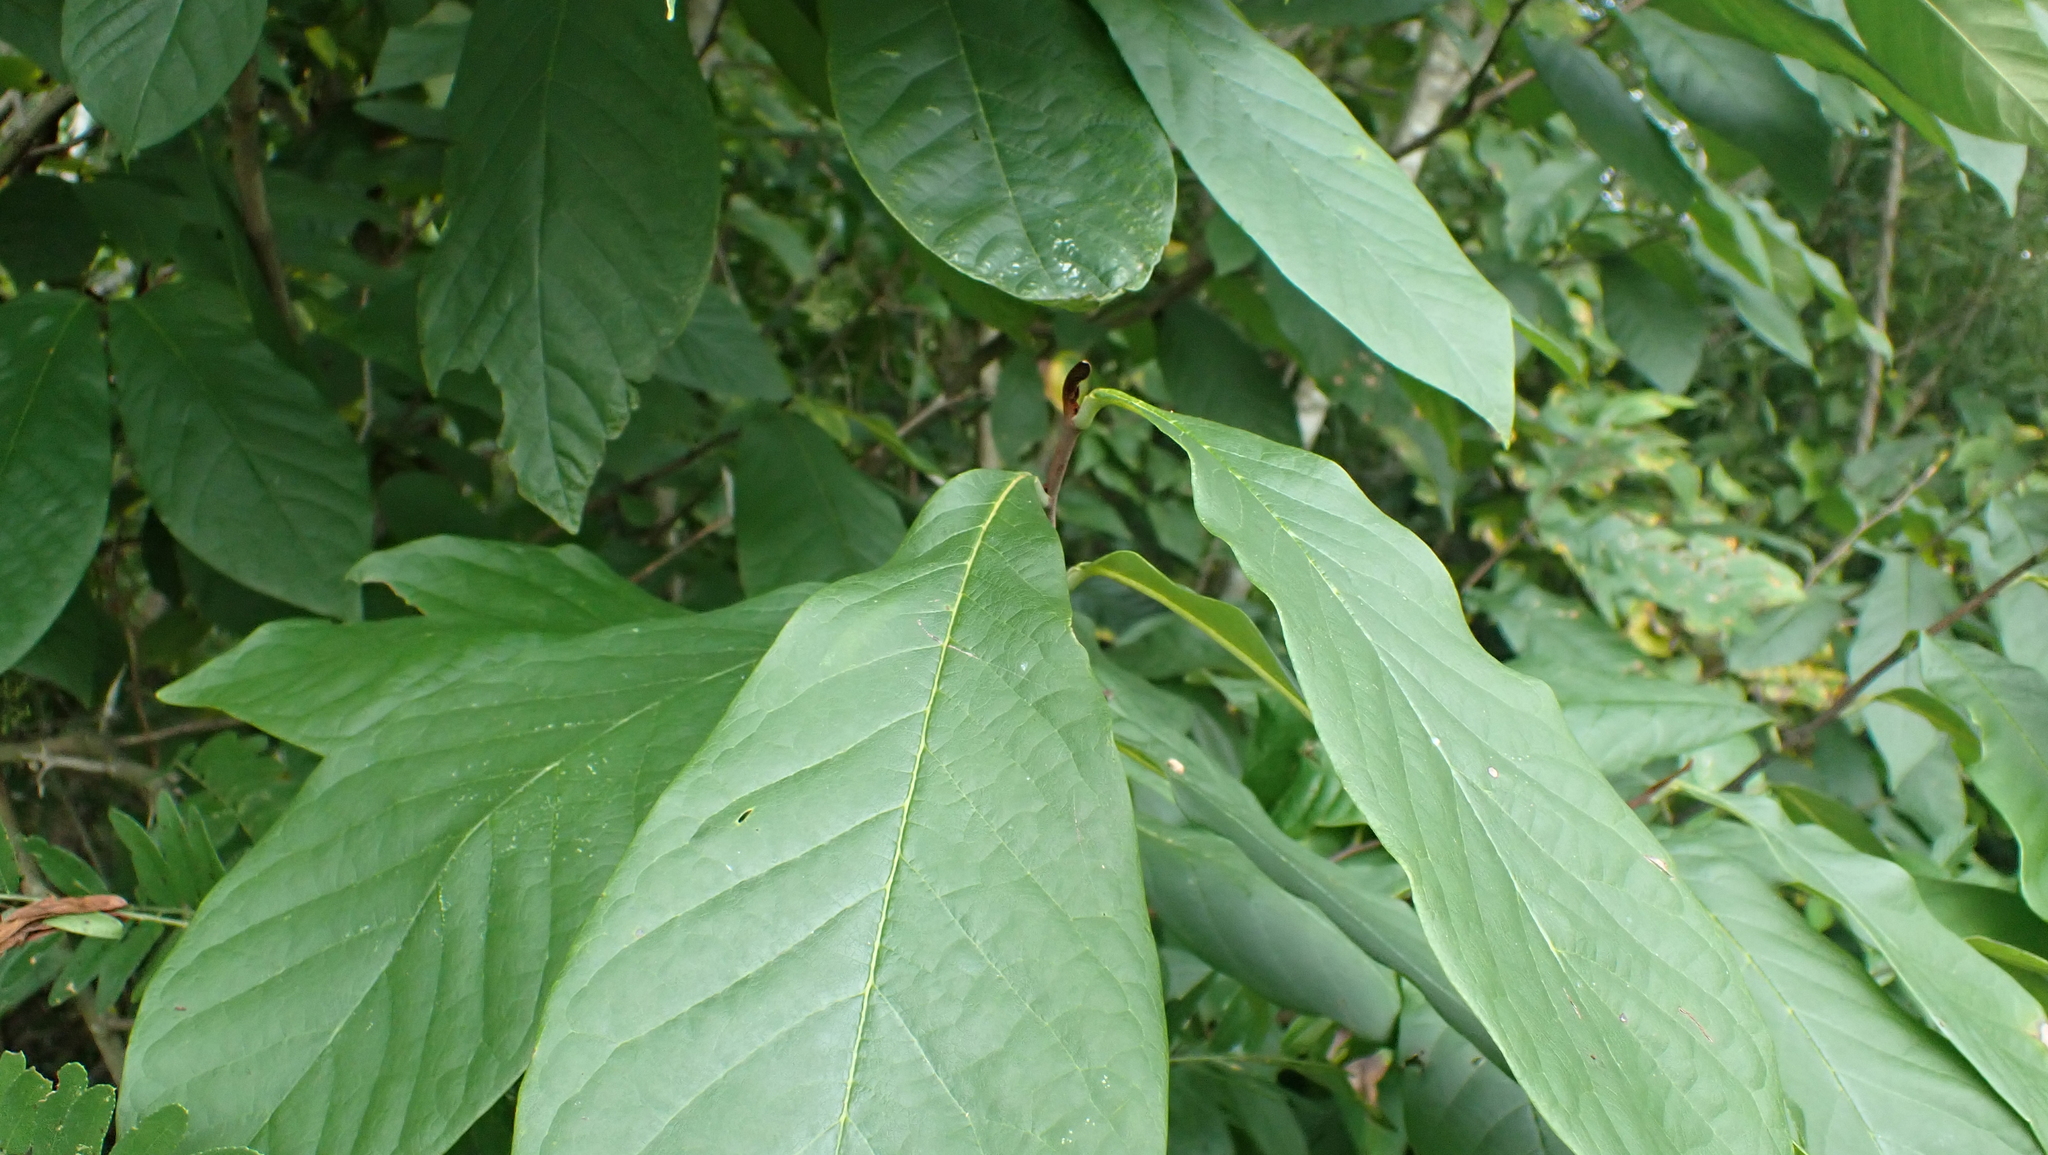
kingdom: Plantae
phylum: Tracheophyta
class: Magnoliopsida
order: Magnoliales
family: Annonaceae
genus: Asimina
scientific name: Asimina triloba
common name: Dog-banana
